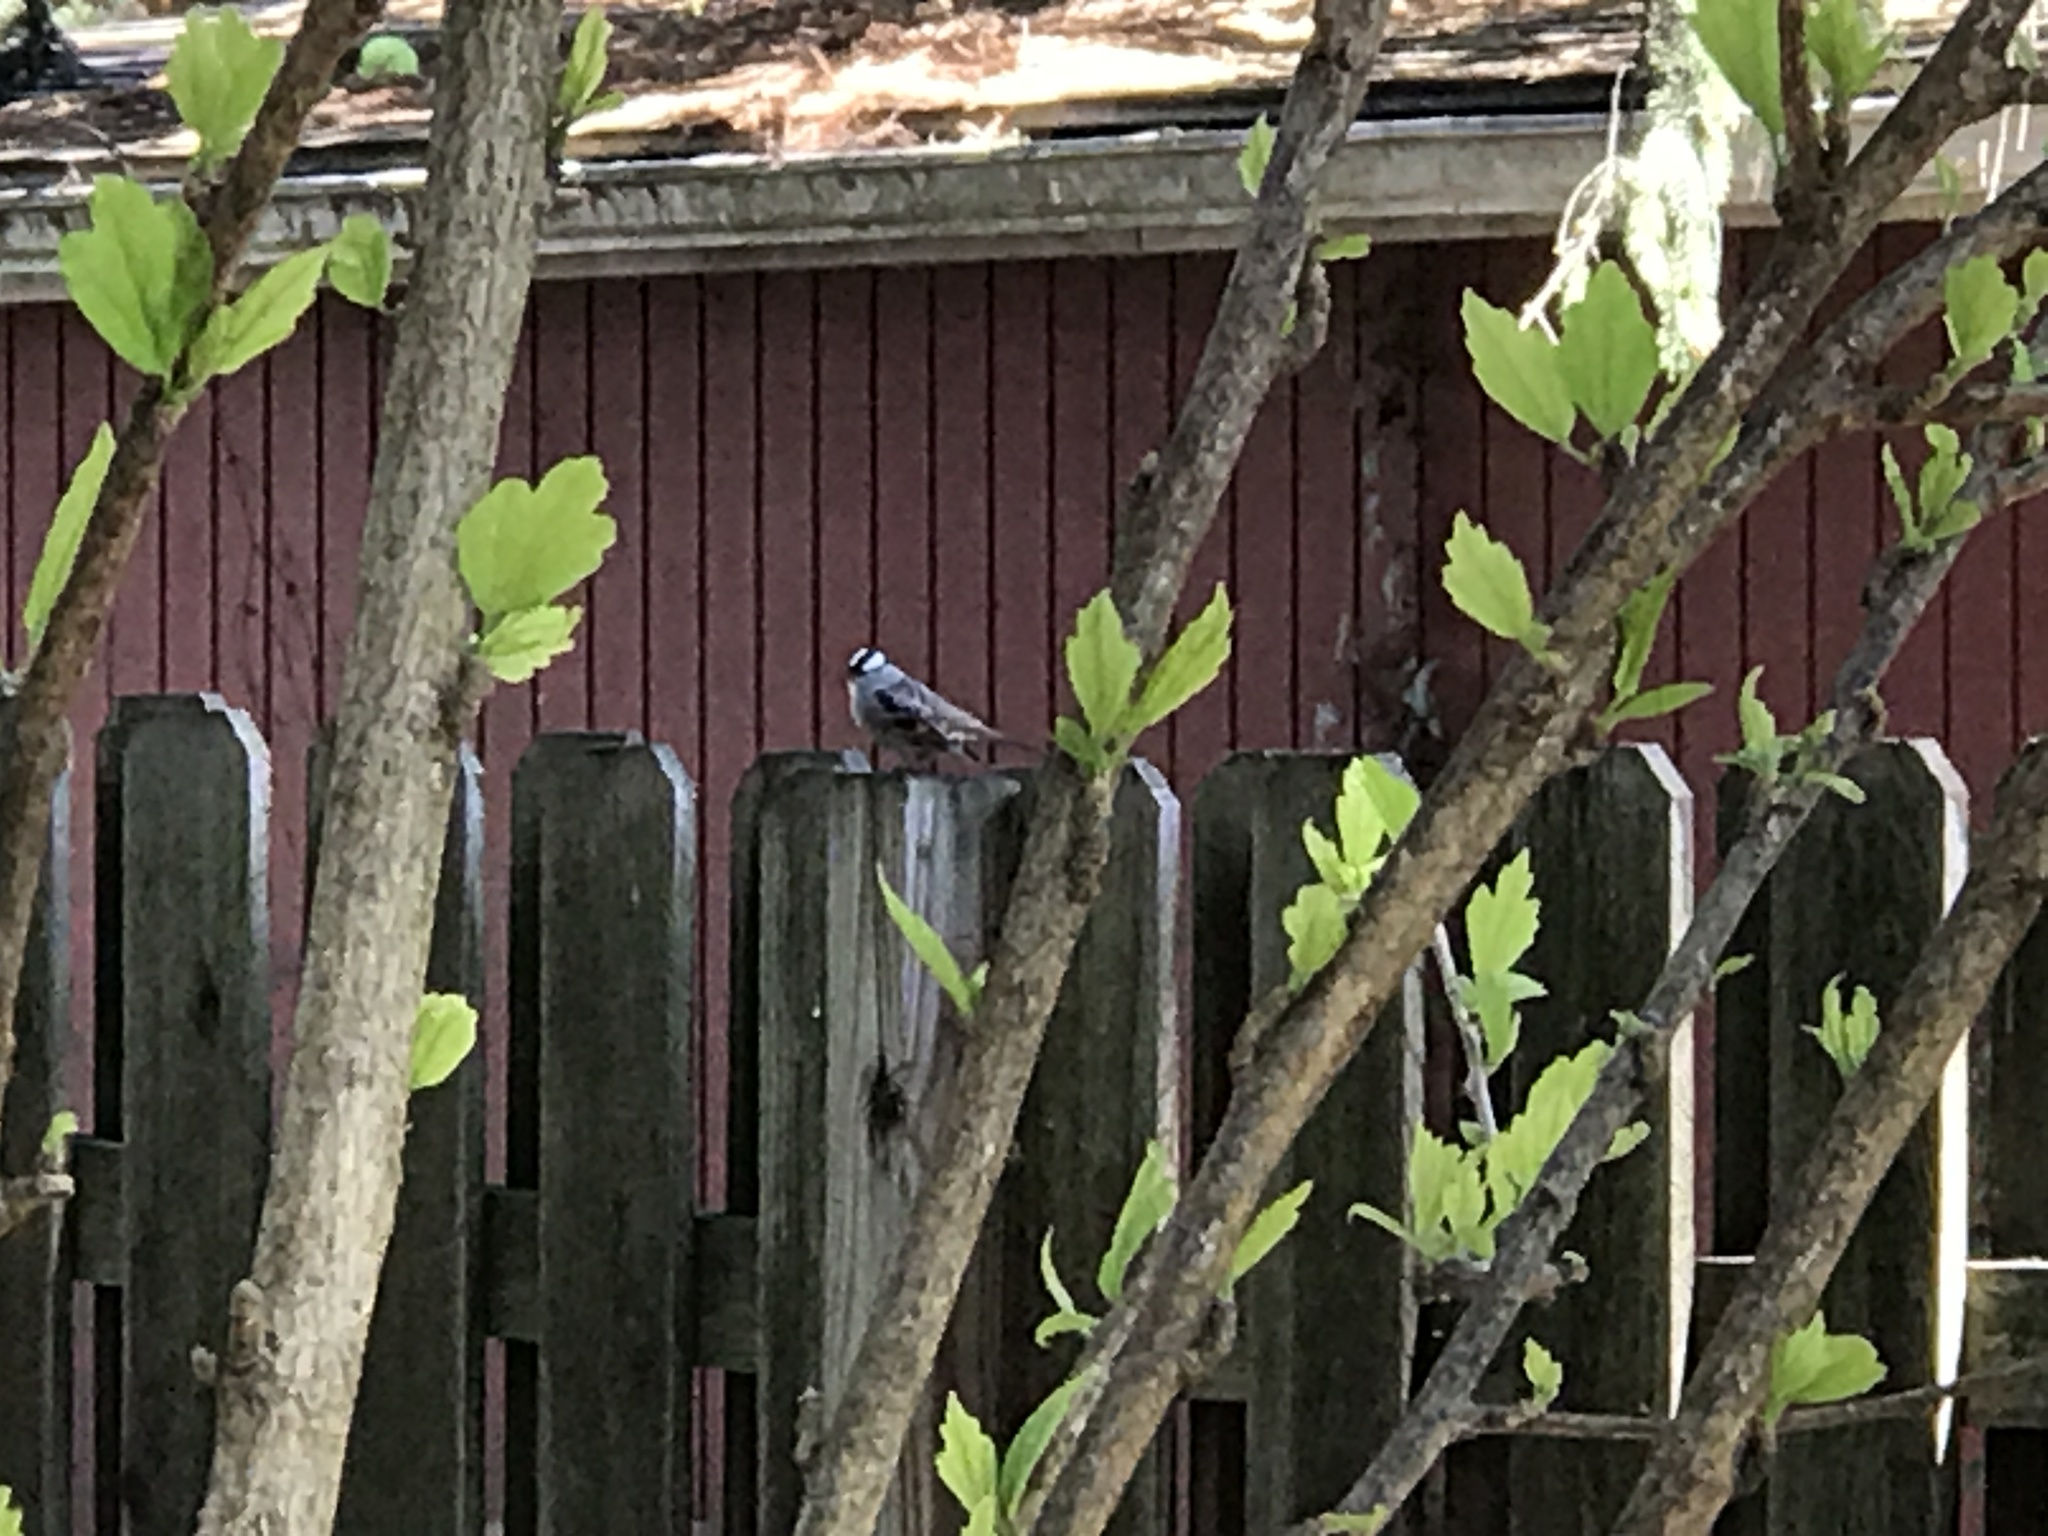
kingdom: Animalia
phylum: Chordata
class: Aves
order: Passeriformes
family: Passerellidae
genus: Zonotrichia
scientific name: Zonotrichia leucophrys
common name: White-crowned sparrow
